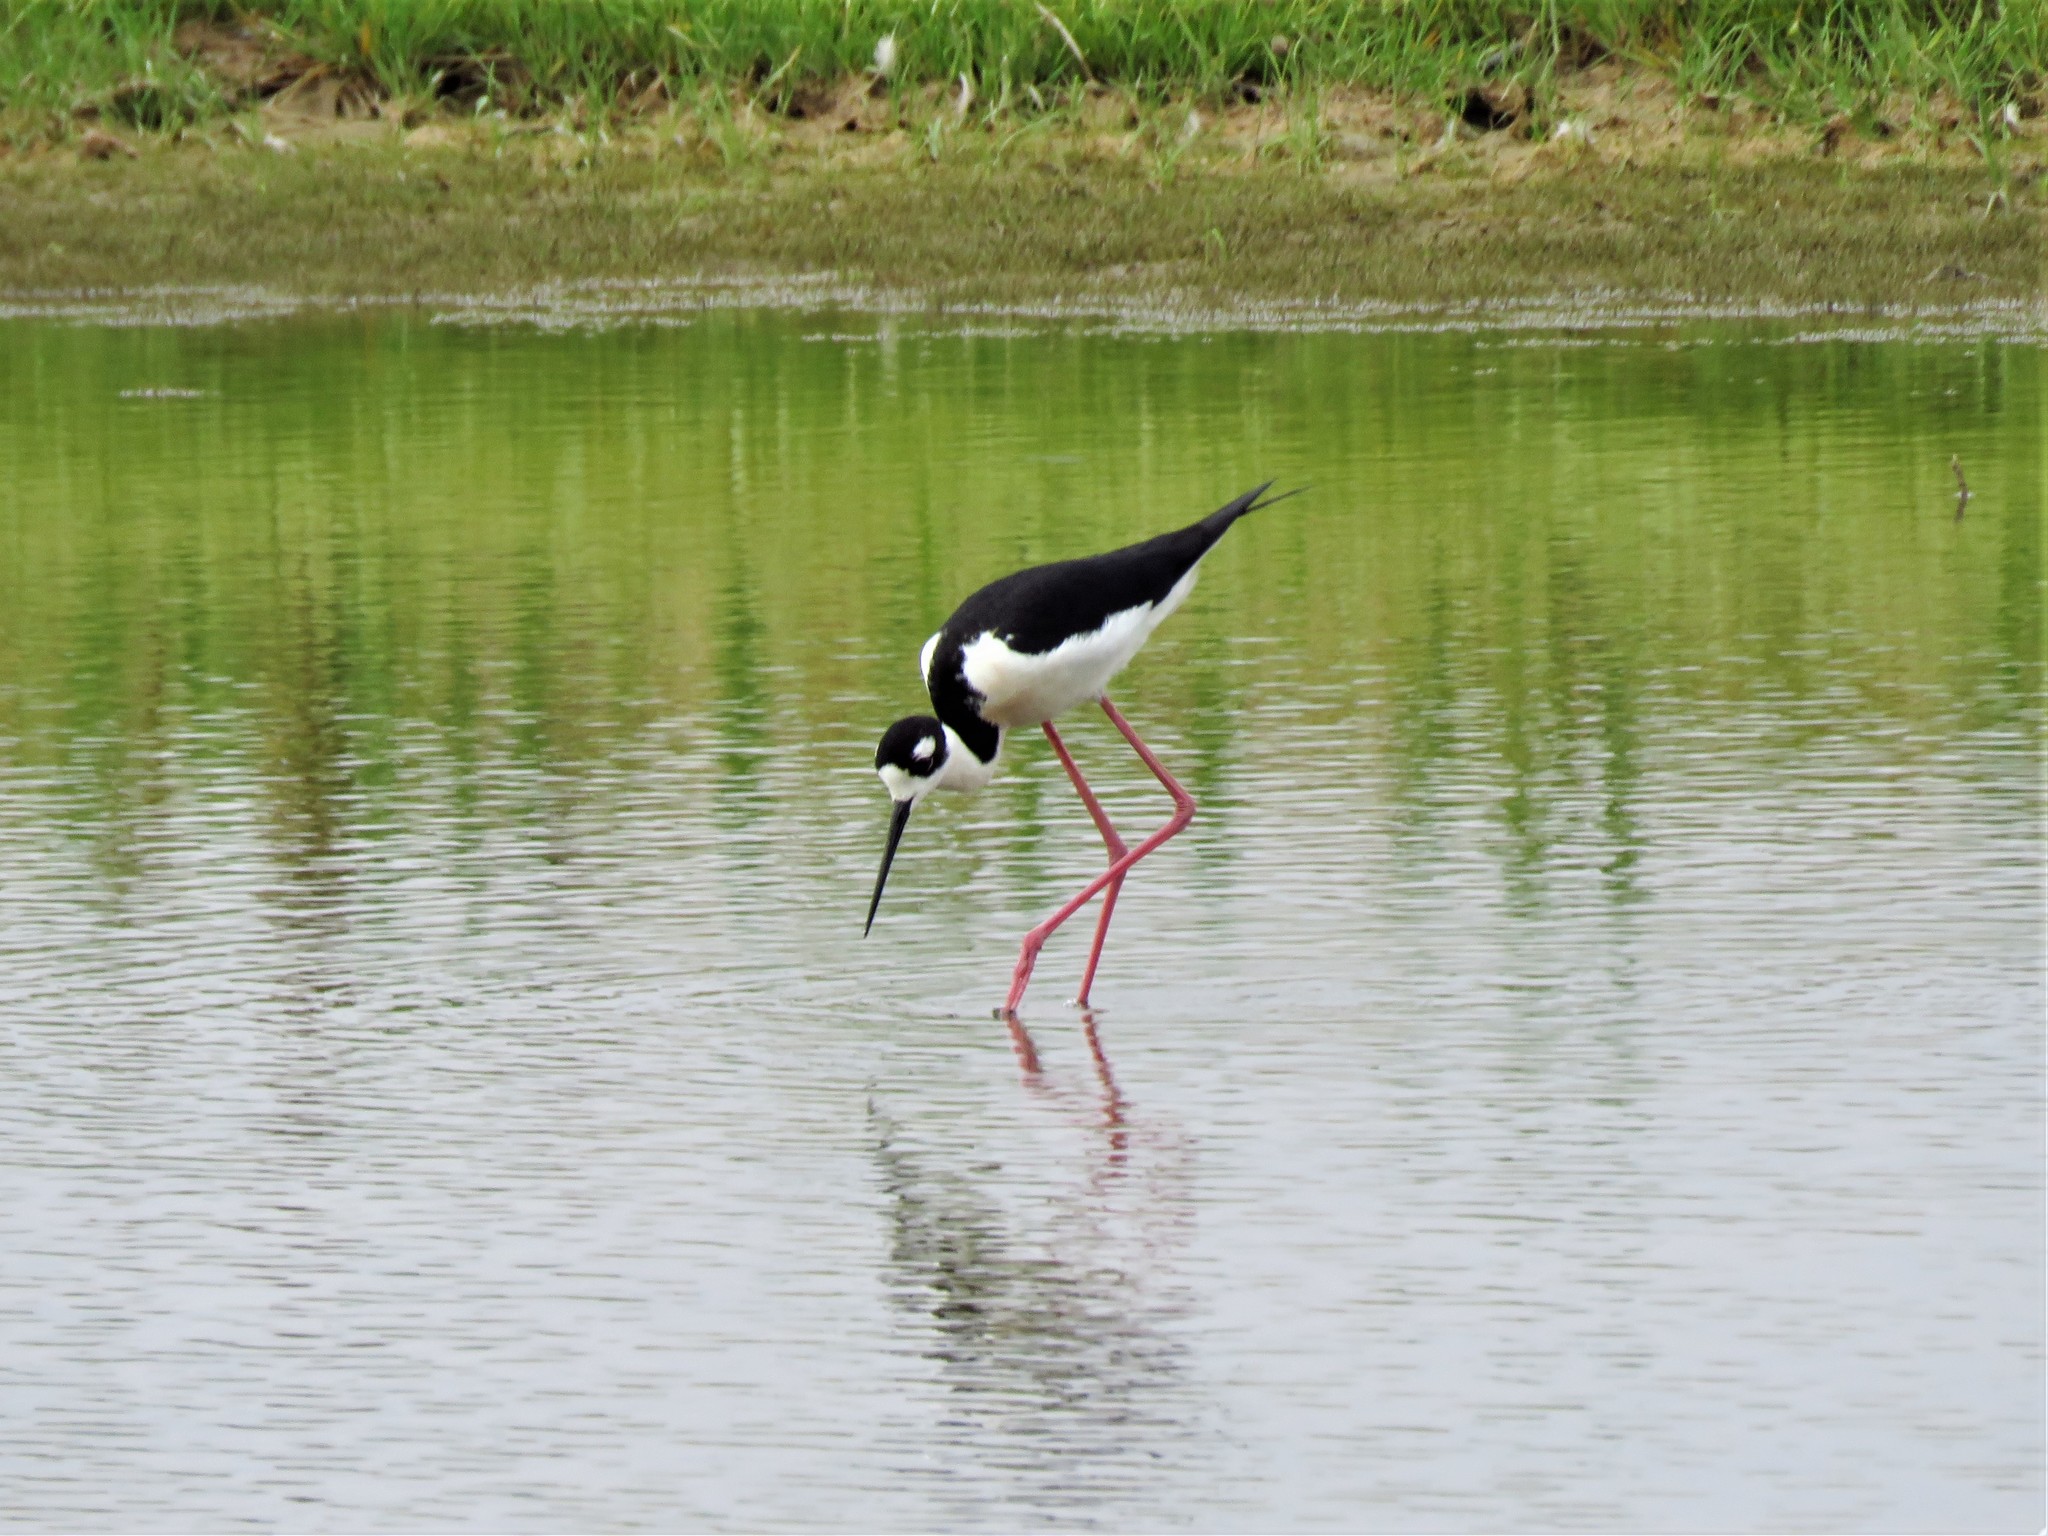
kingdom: Animalia
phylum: Chordata
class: Aves
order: Charadriiformes
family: Recurvirostridae
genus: Himantopus
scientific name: Himantopus mexicanus
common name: Black-necked stilt
